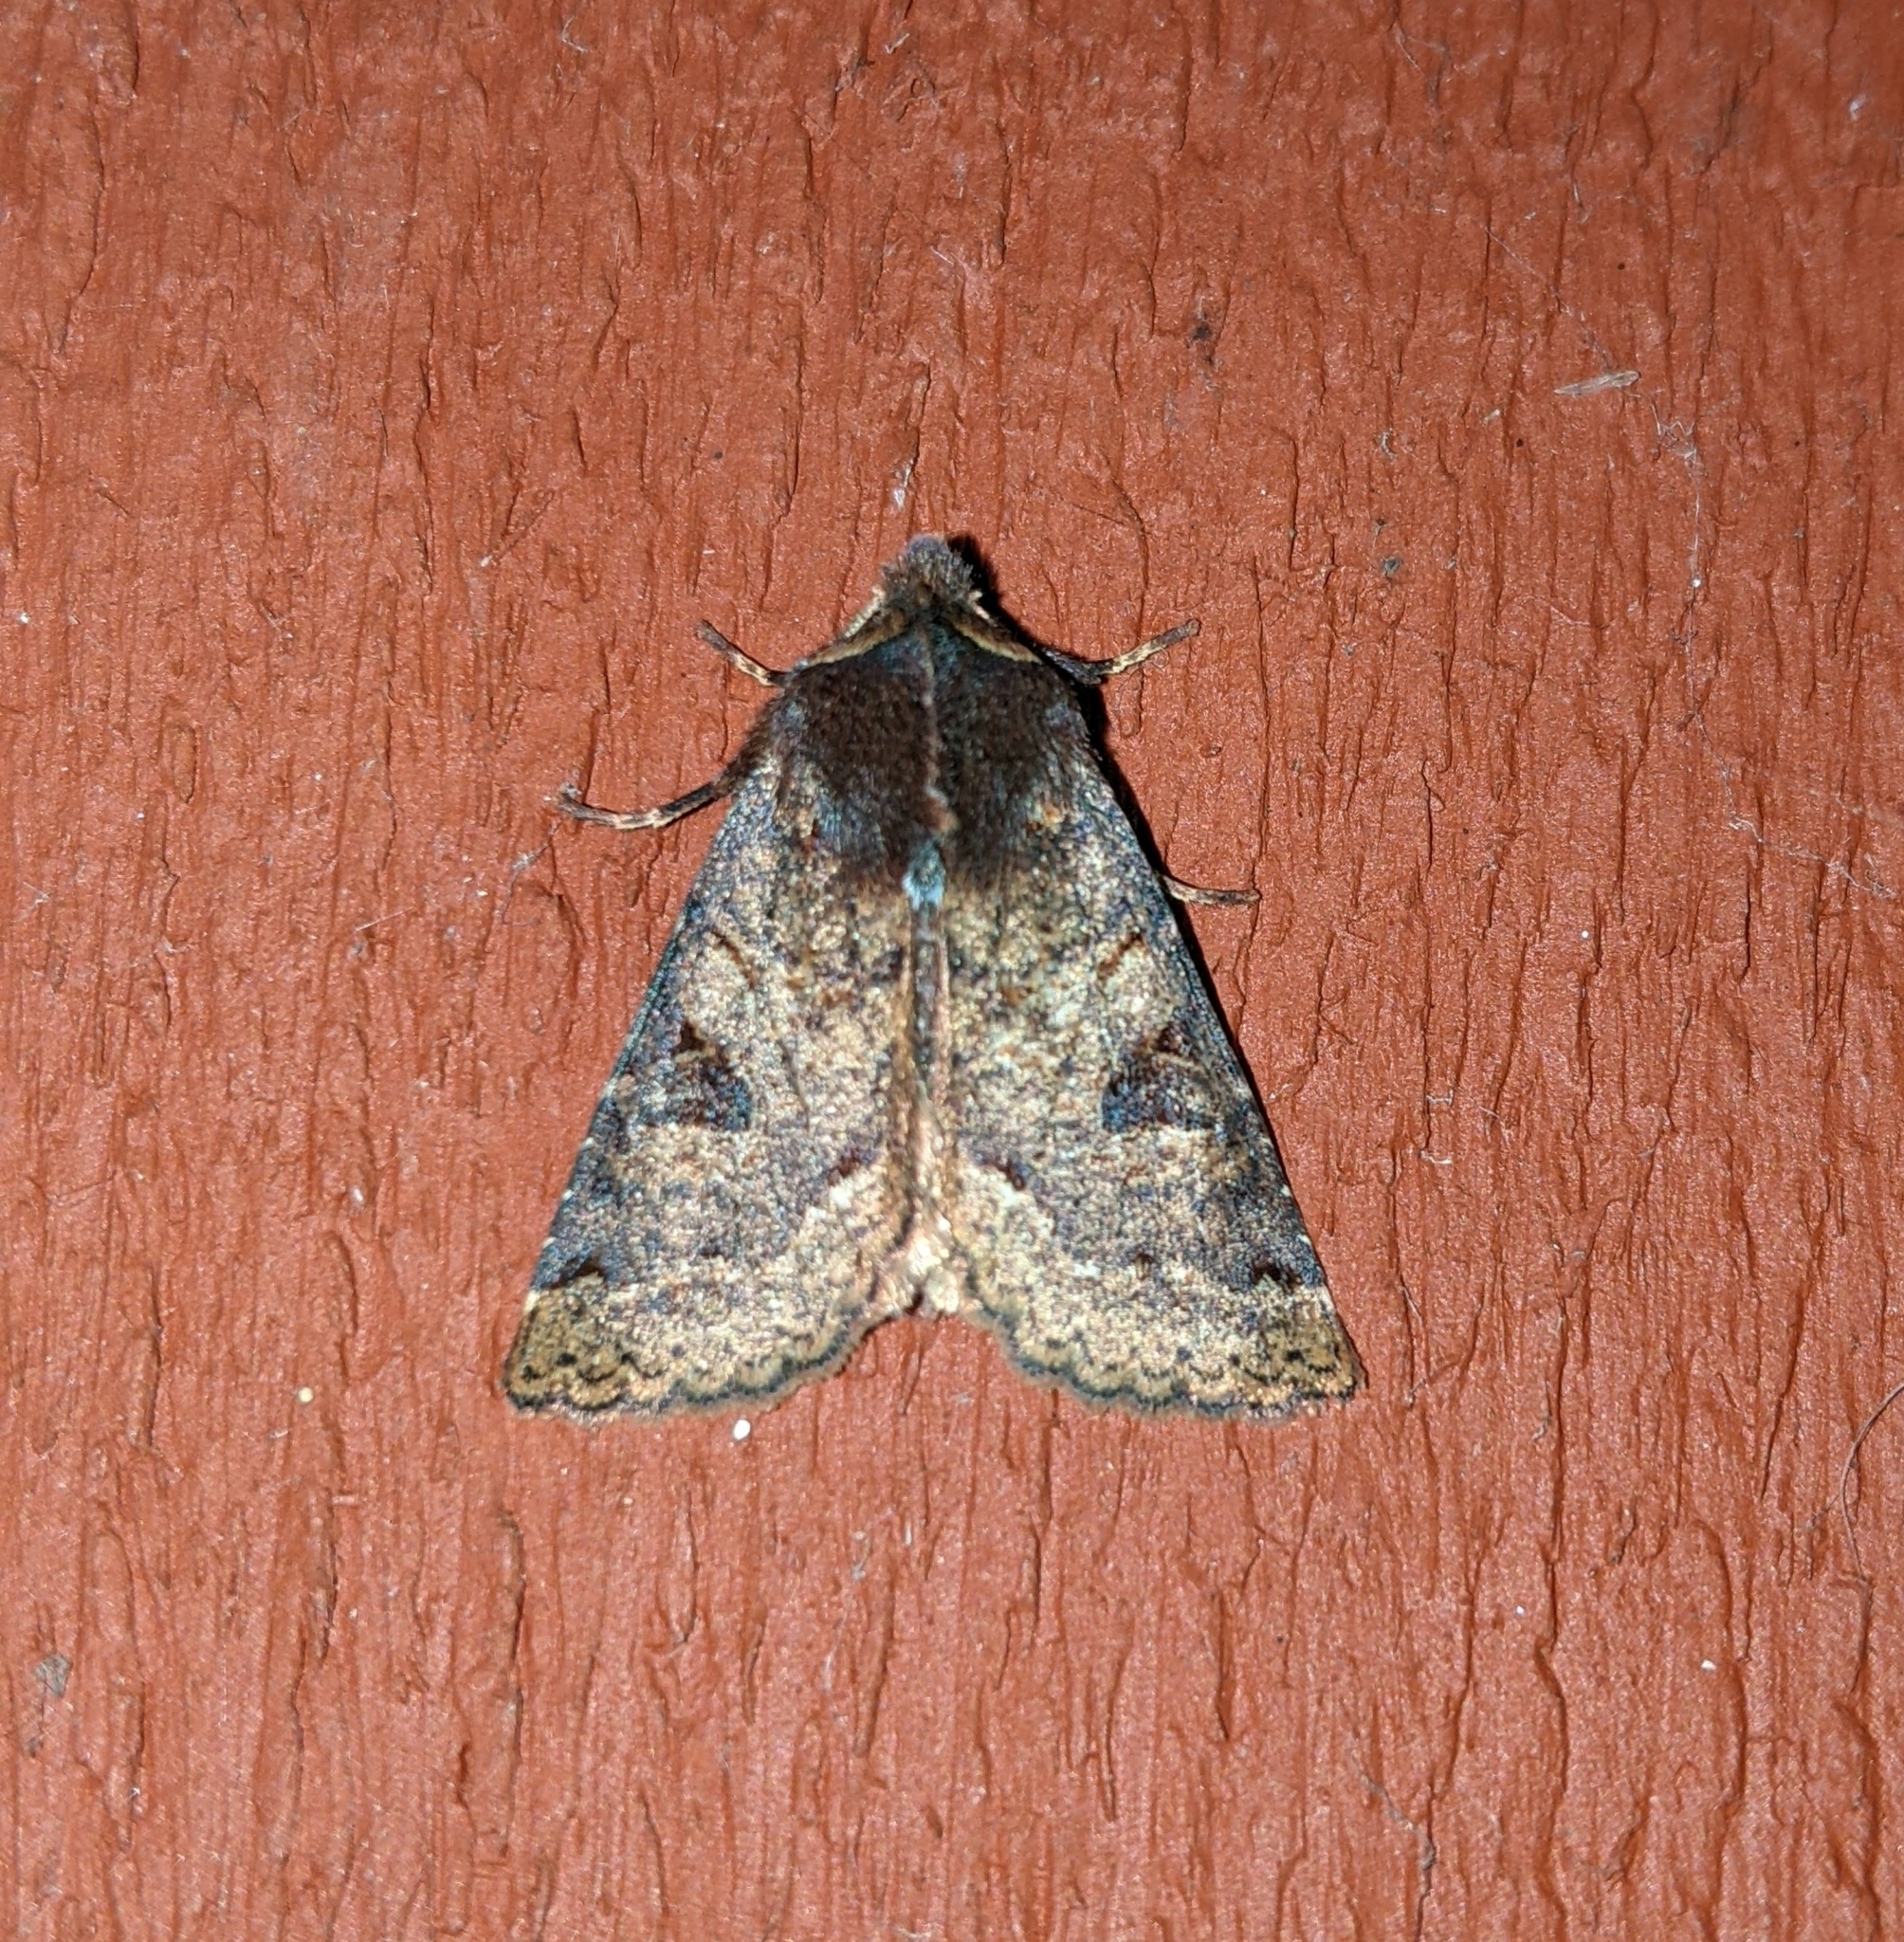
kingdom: Animalia
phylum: Arthropoda
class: Insecta
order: Lepidoptera
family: Noctuidae
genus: Orthosia
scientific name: Orthosia praeses
